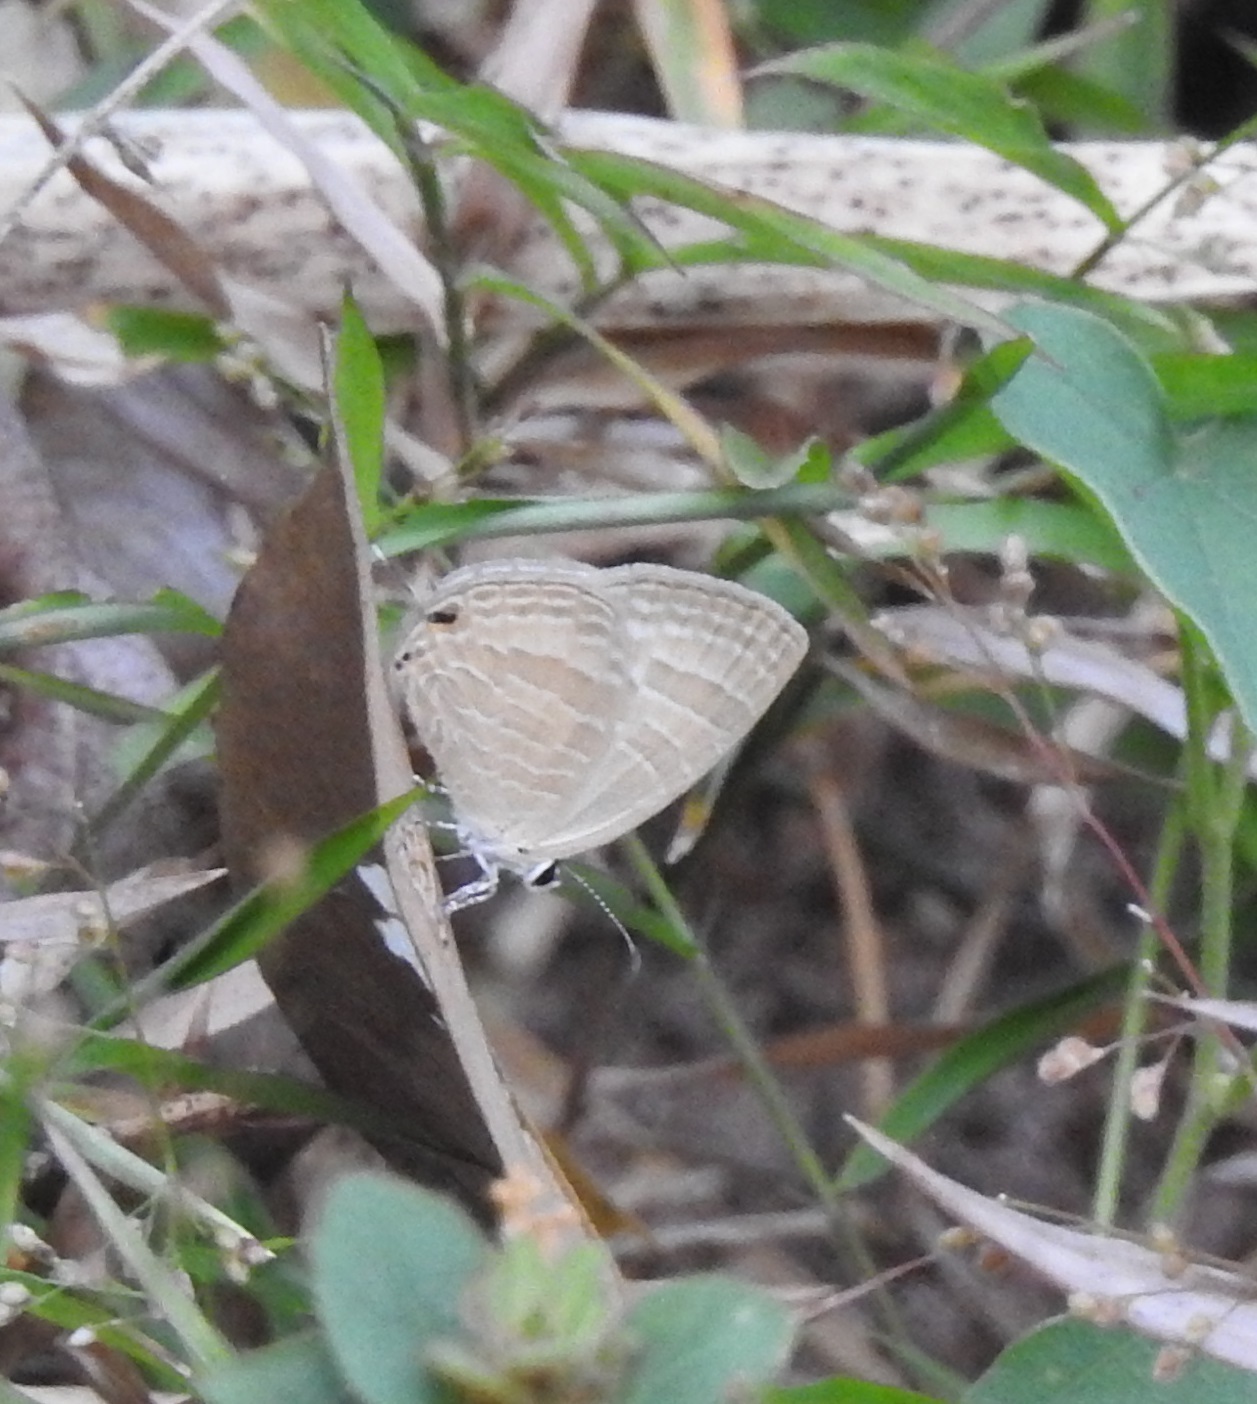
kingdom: Animalia
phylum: Arthropoda
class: Insecta
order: Lepidoptera
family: Lycaenidae
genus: Jamides
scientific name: Jamides celeno
